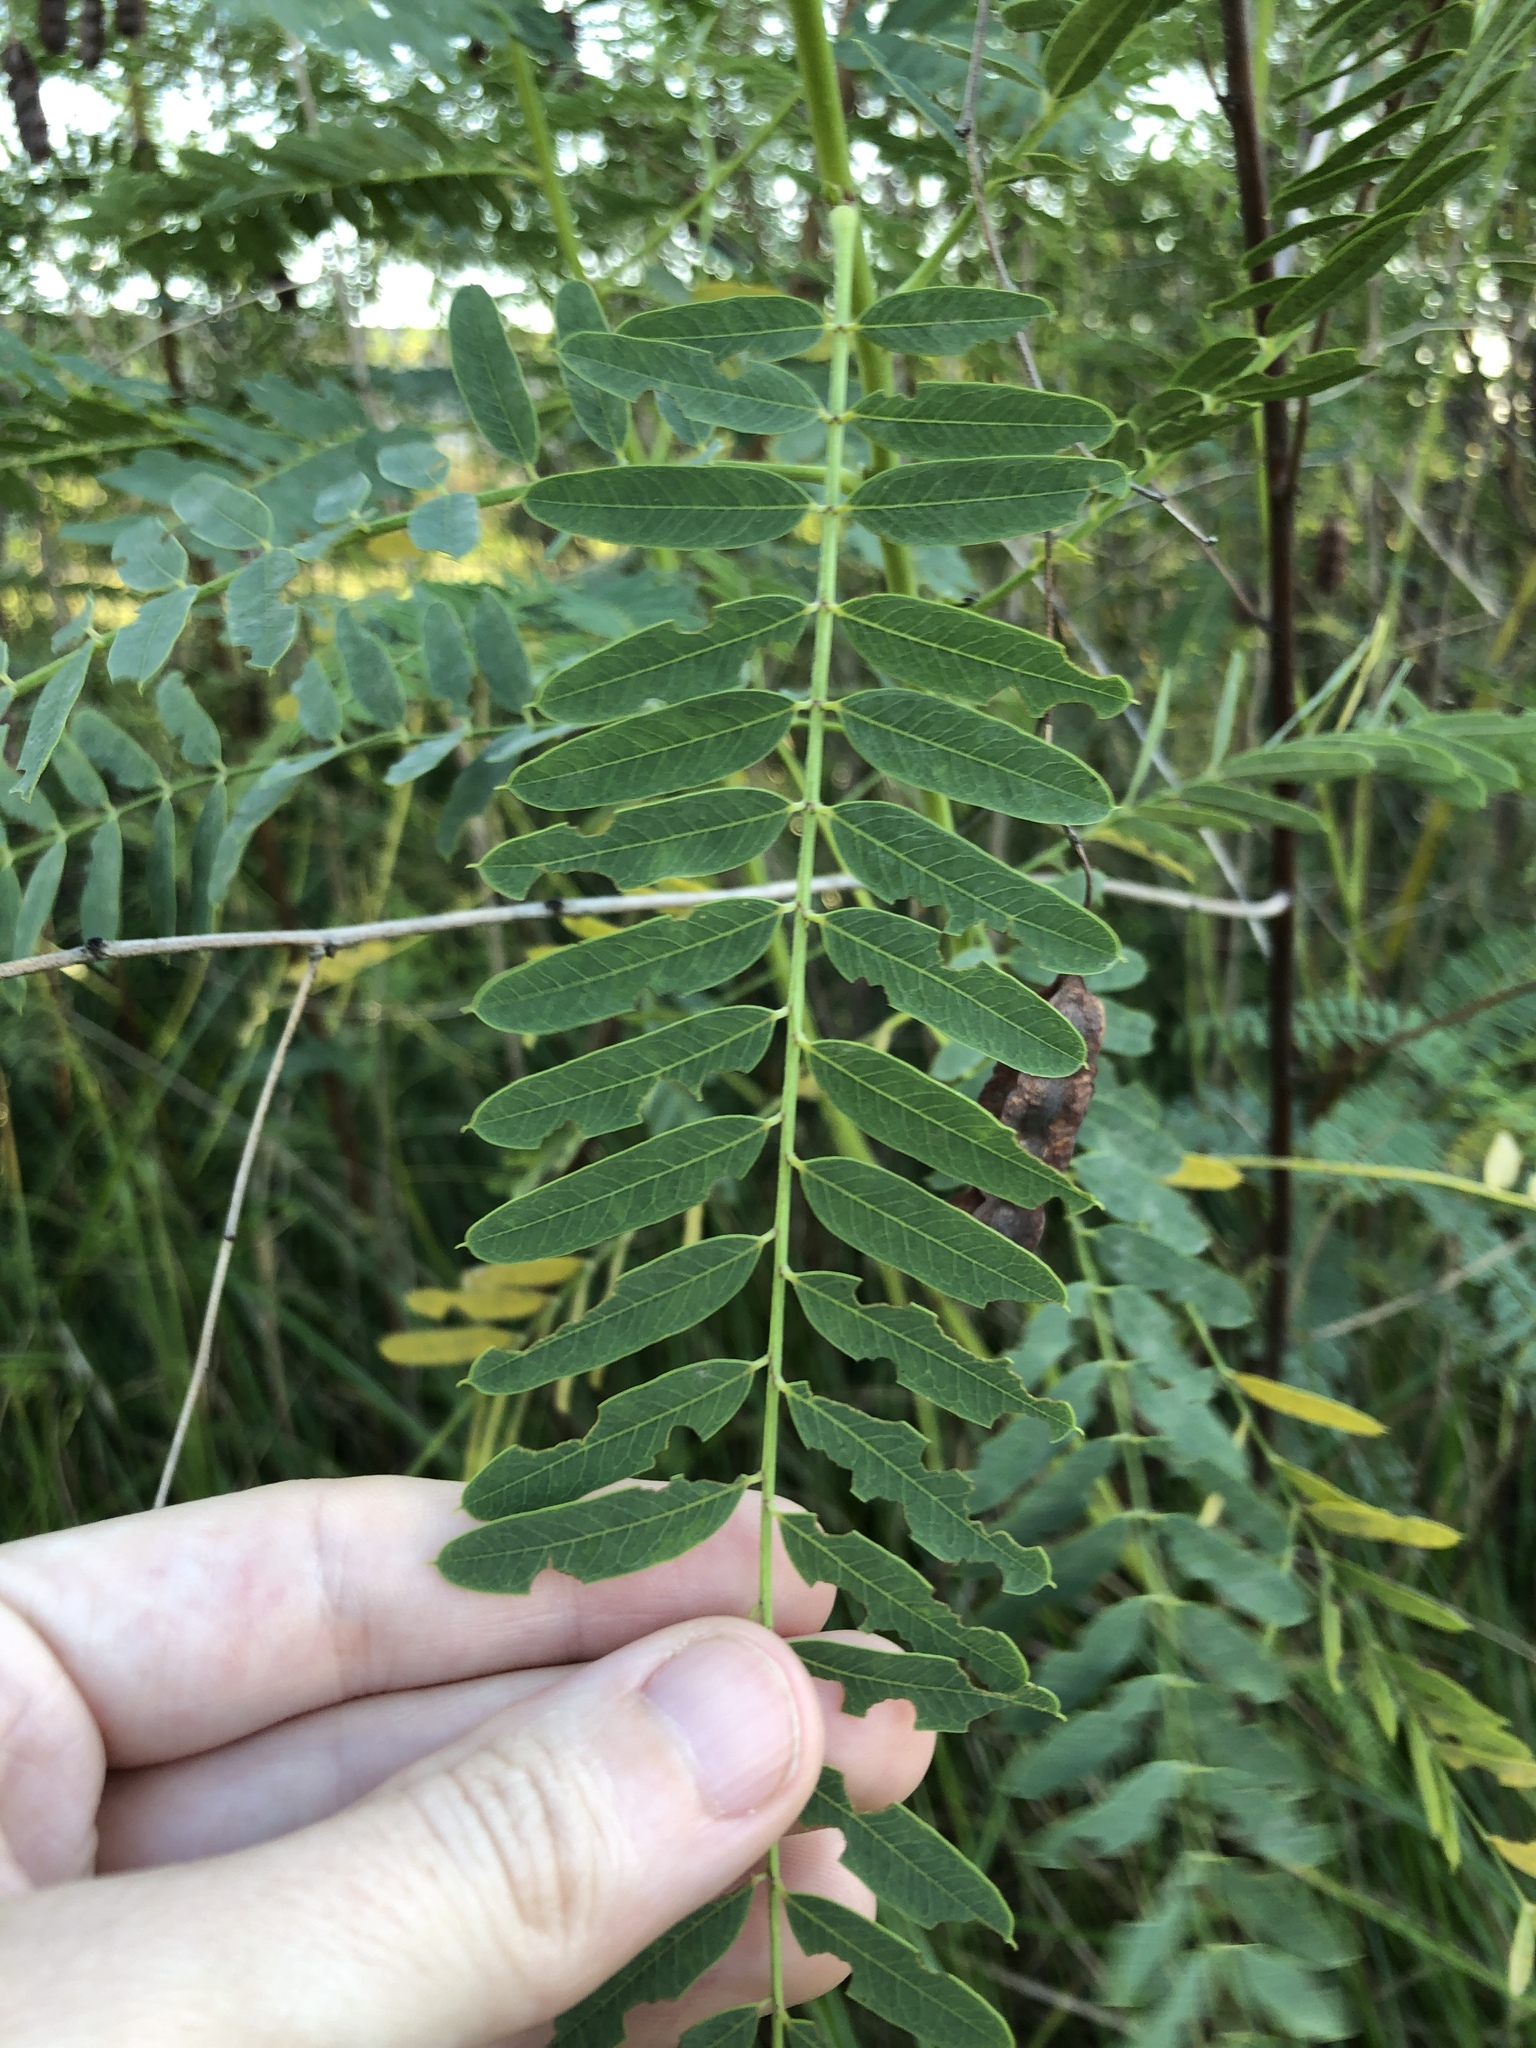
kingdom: Plantae
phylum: Tracheophyta
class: Magnoliopsida
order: Fabales
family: Fabaceae
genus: Sesbania
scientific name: Sesbania drummondii
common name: Poison-bean
